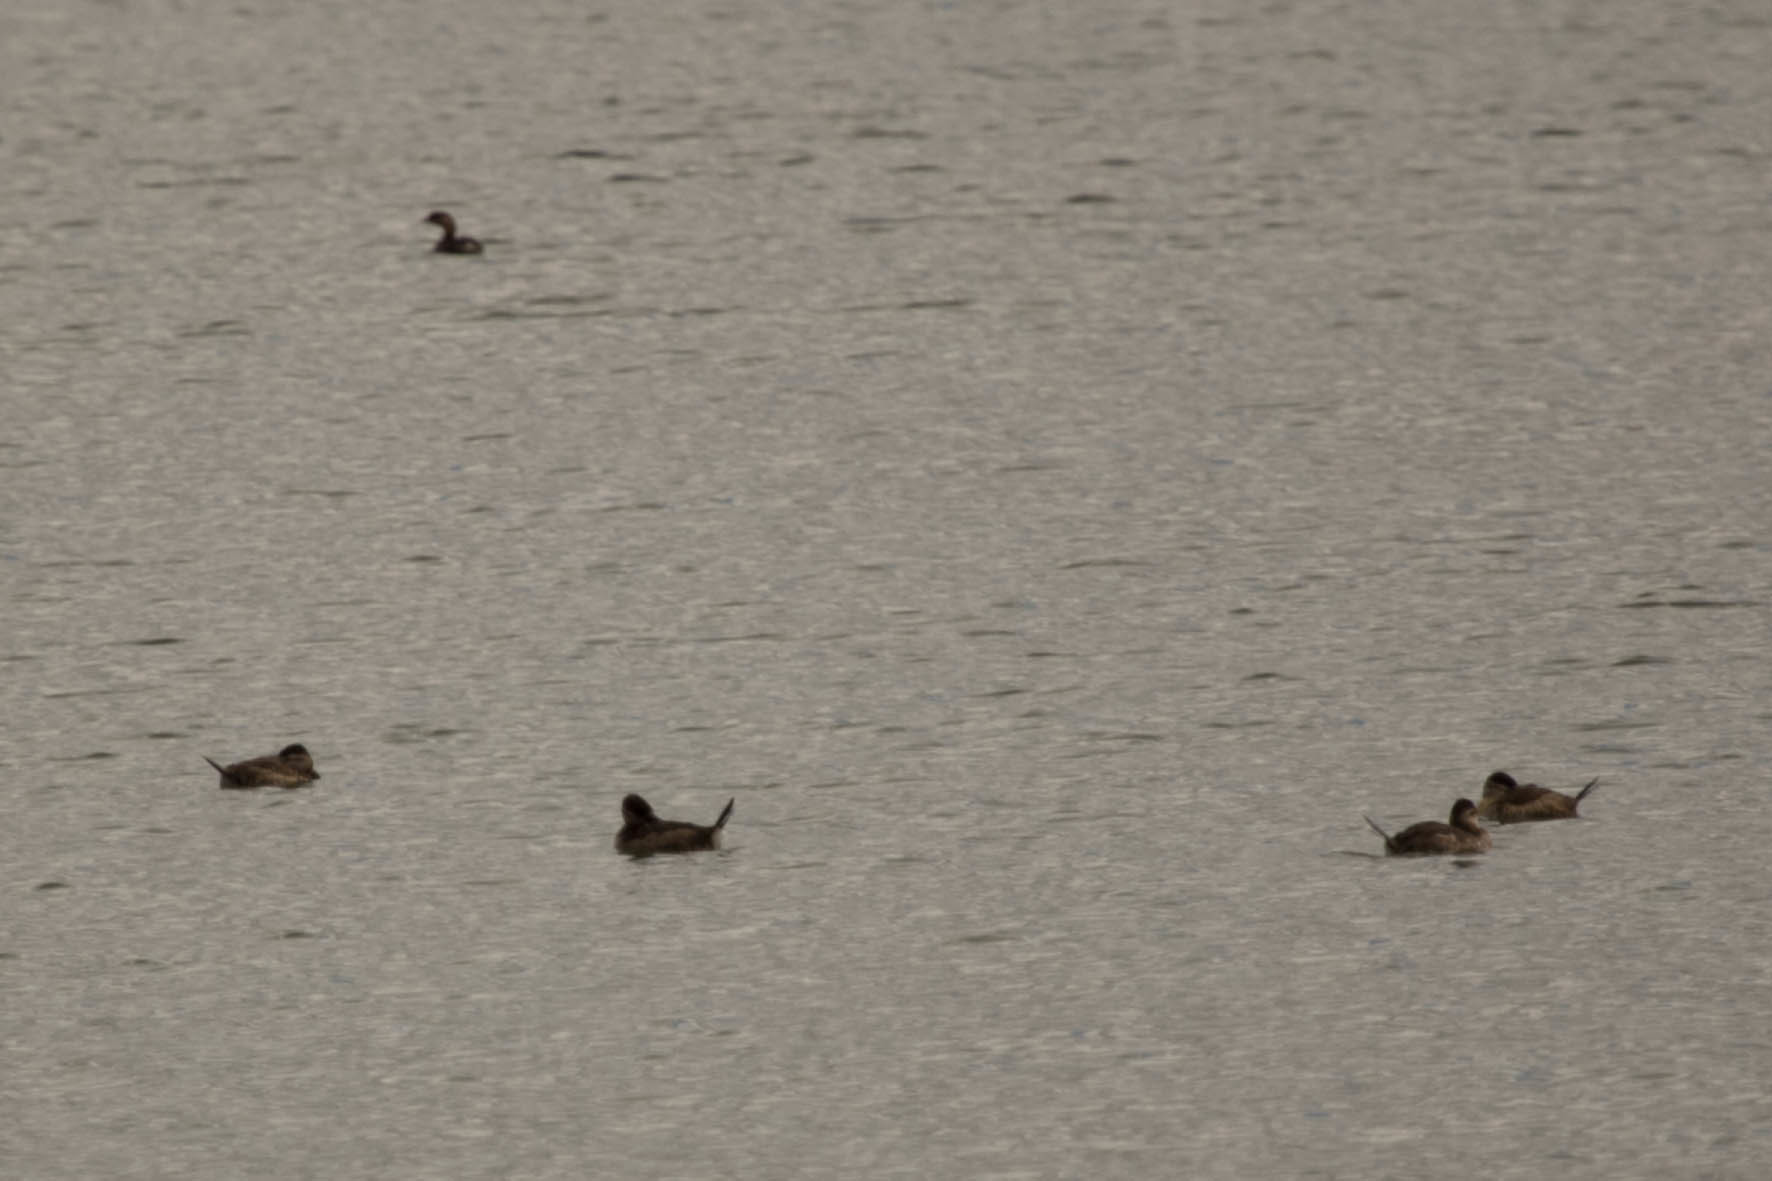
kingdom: Animalia
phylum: Chordata
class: Aves
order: Anseriformes
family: Anatidae
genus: Oxyura
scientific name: Oxyura jamaicensis
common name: Ruddy duck
